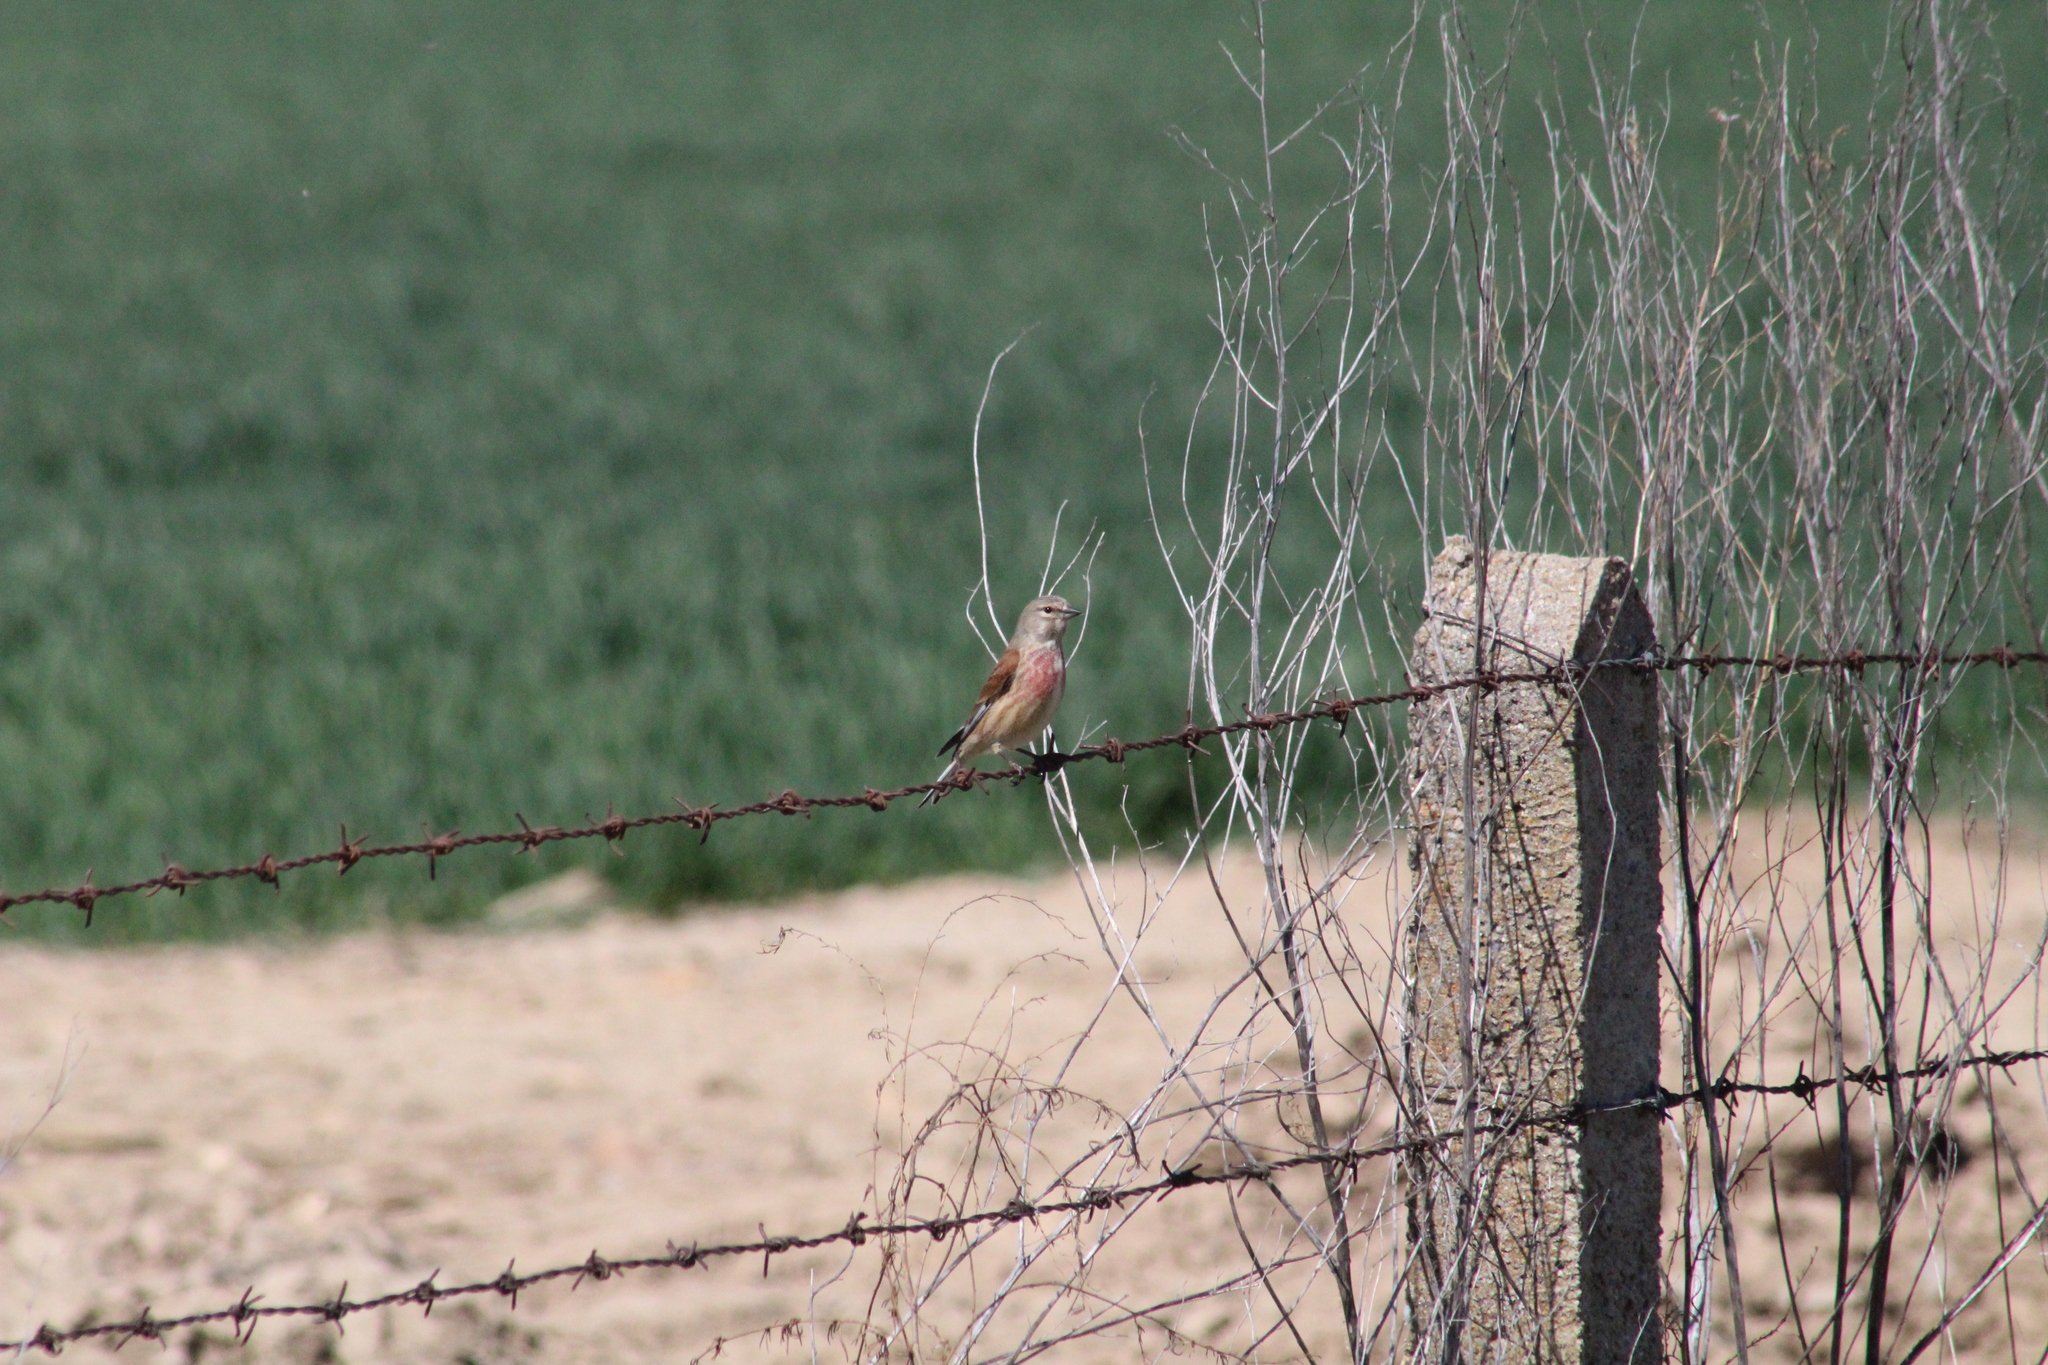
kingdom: Animalia
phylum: Chordata
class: Aves
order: Passeriformes
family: Fringillidae
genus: Linaria
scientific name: Linaria cannabina
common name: Common linnet
